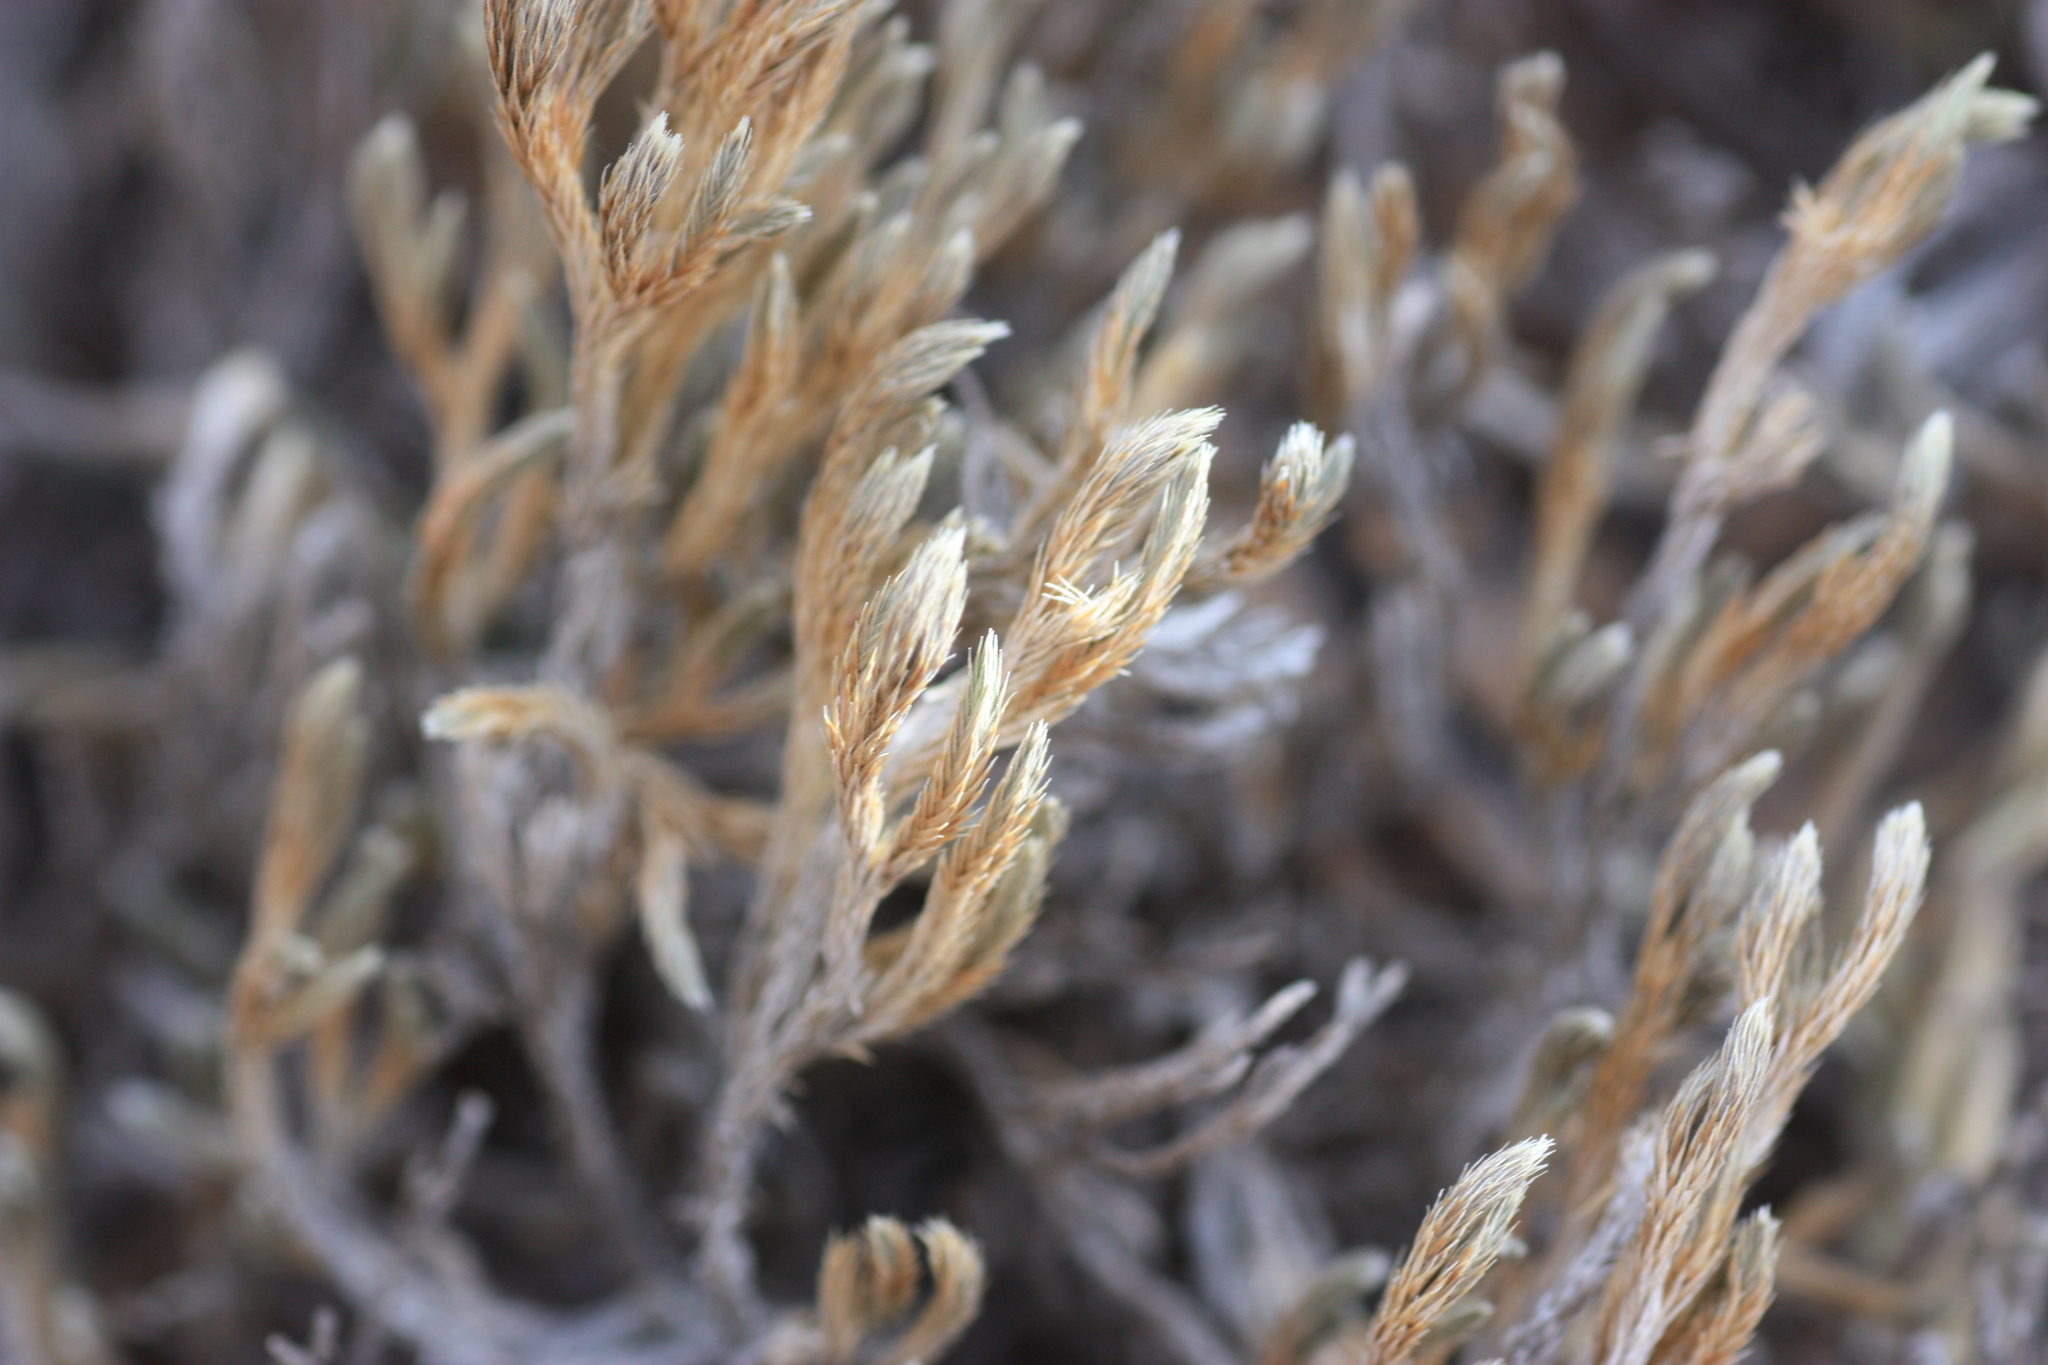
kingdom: Plantae
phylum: Tracheophyta
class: Lycopodiopsida
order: Selaginellales
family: Selaginellaceae
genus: Selaginella
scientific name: Selaginella rupincola
